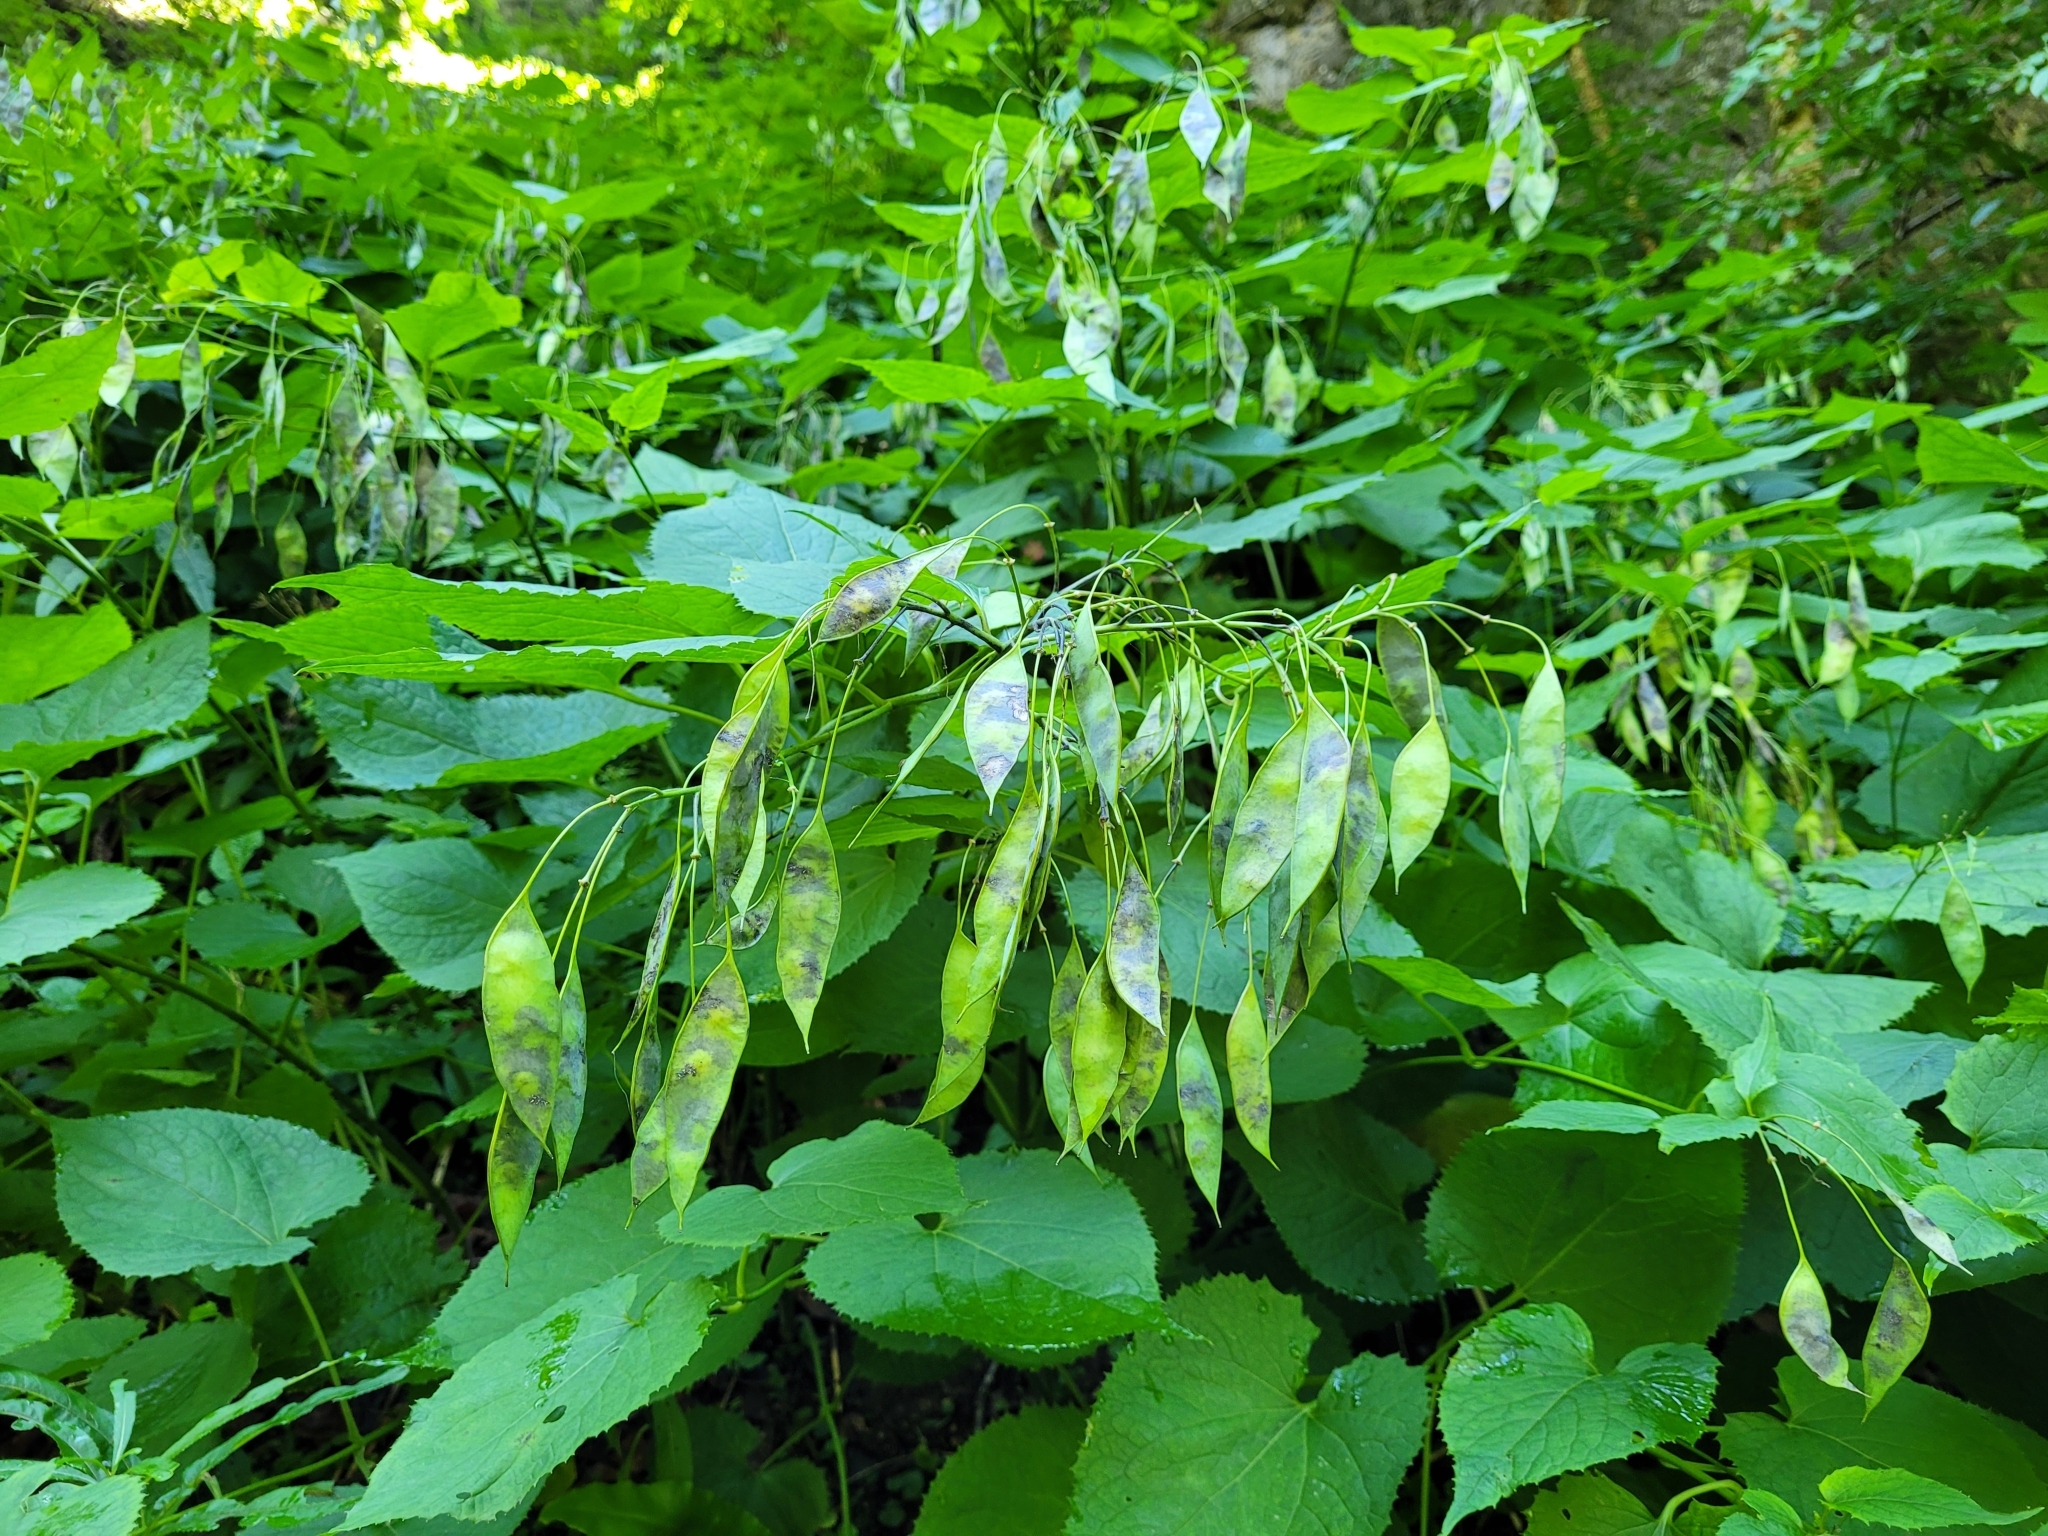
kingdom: Plantae
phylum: Tracheophyta
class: Magnoliopsida
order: Brassicales
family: Brassicaceae
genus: Lunaria
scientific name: Lunaria rediviva
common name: Perennial honesty
